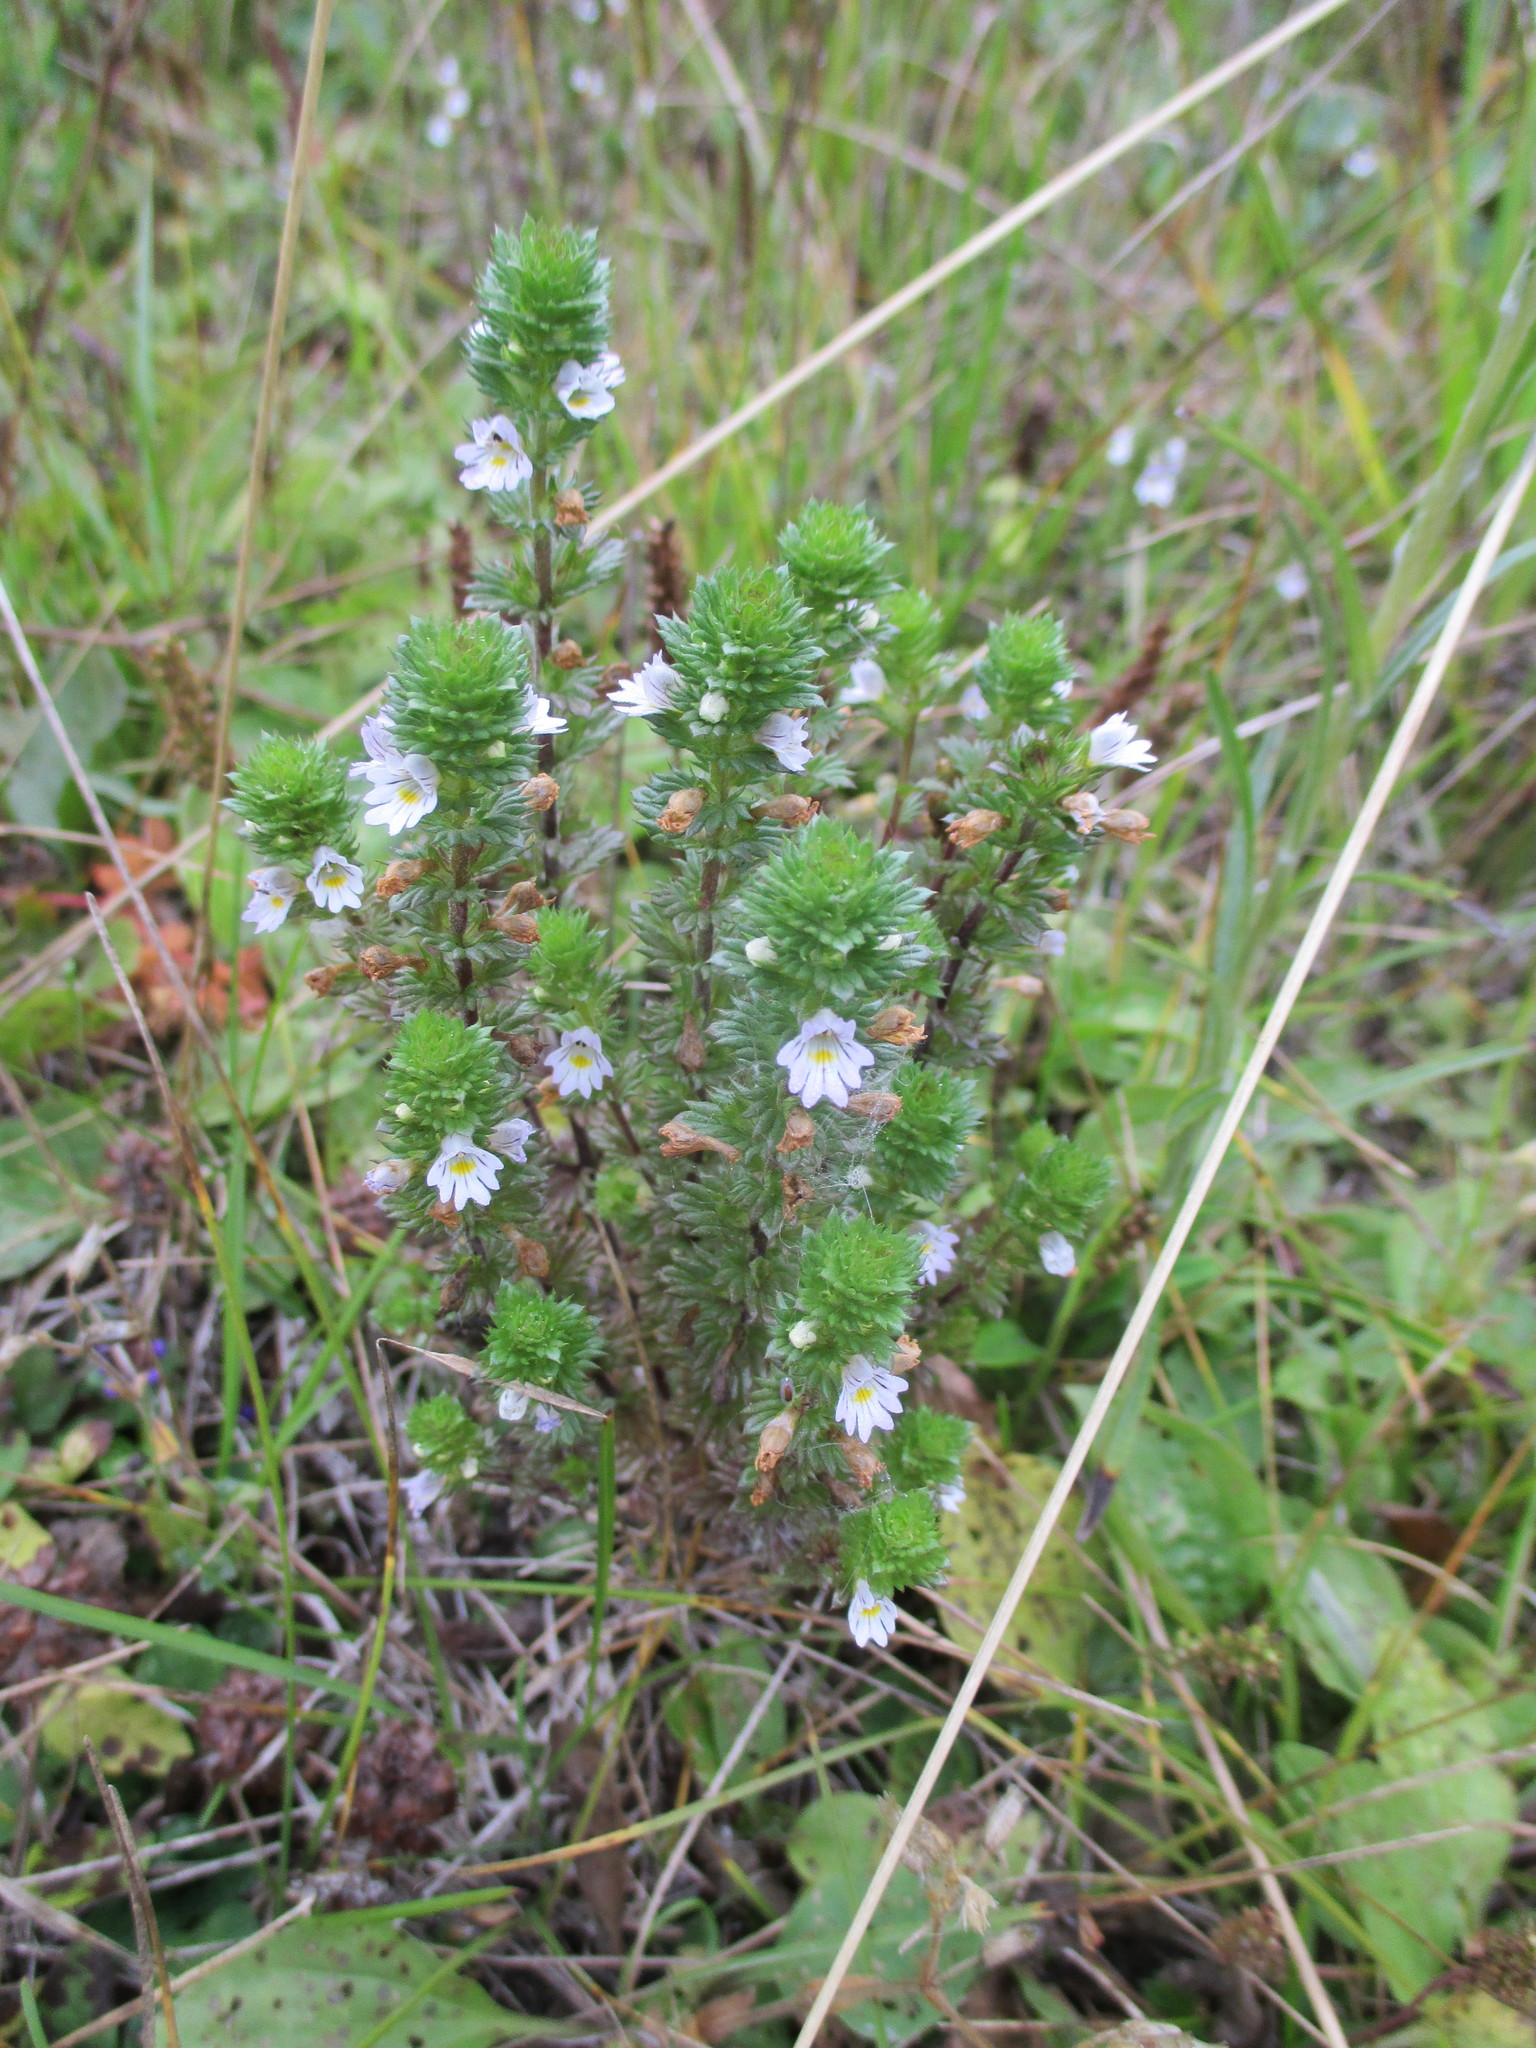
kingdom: Plantae
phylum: Tracheophyta
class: Magnoliopsida
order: Lamiales
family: Orobanchaceae
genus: Euphrasia
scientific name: Euphrasia stricta
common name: Drug eyebright
